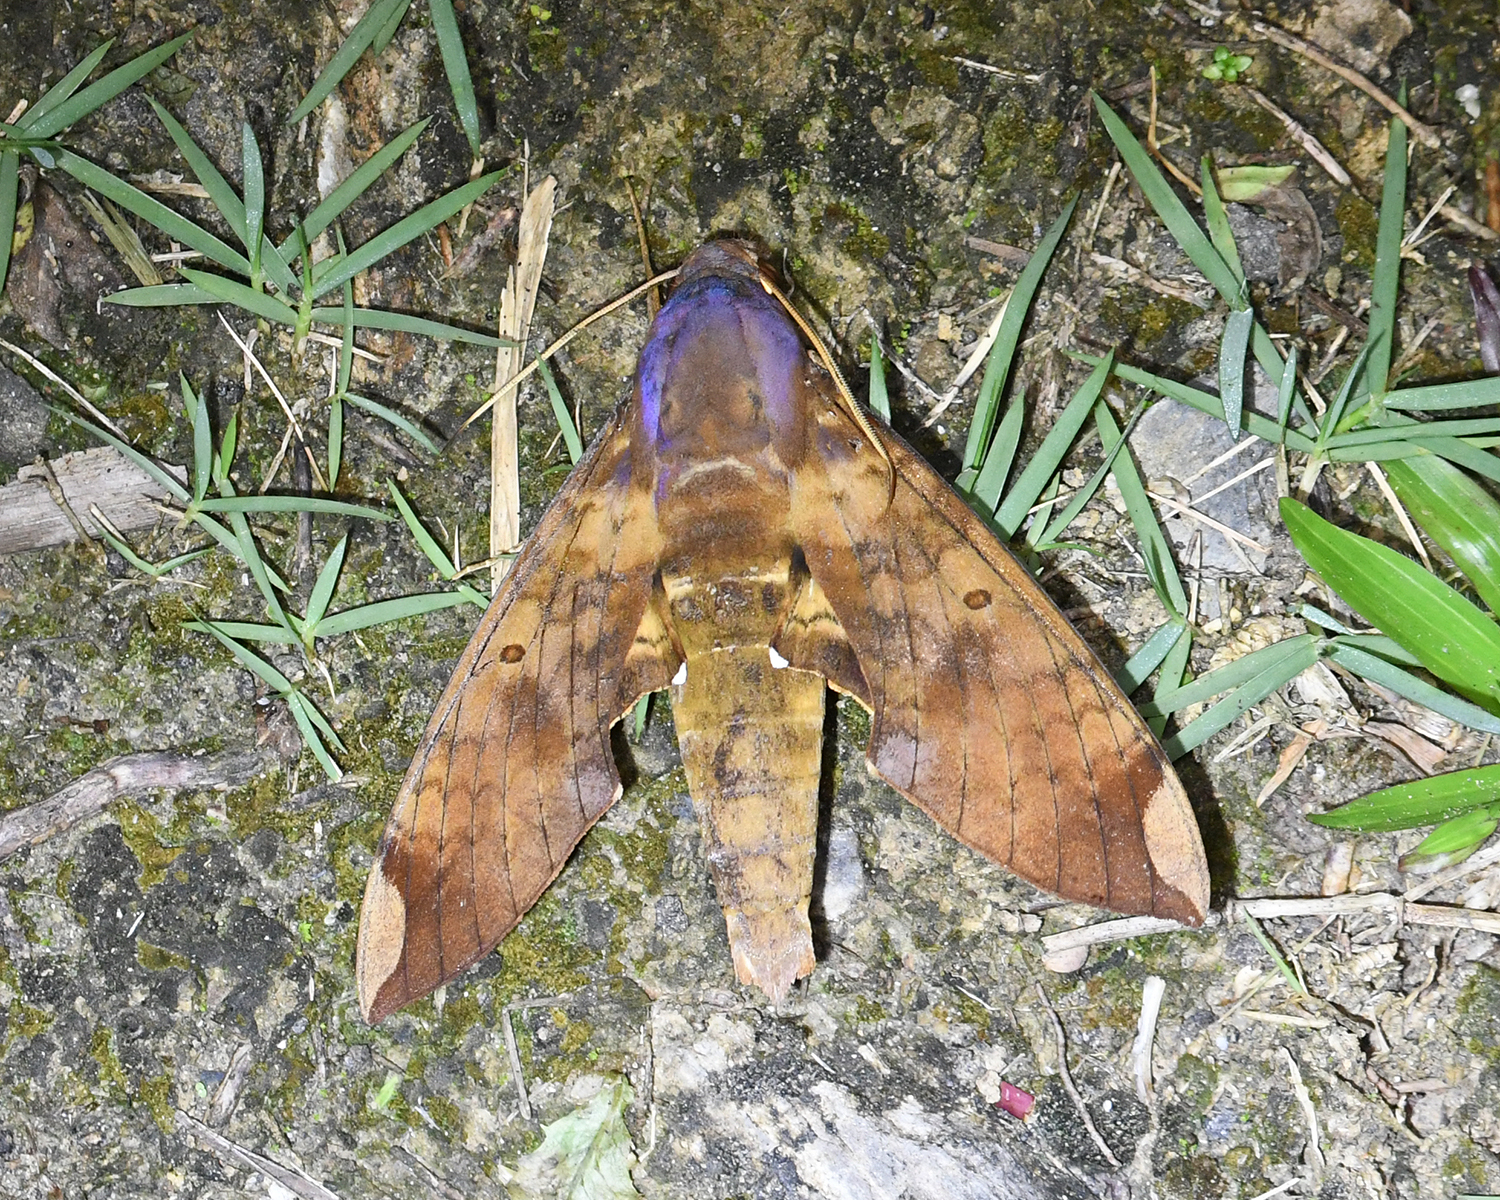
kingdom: Animalia
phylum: Arthropoda
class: Insecta
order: Lepidoptera
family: Sphingidae
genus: Pachylia
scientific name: Pachylia ficus
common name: Fig sphinx
